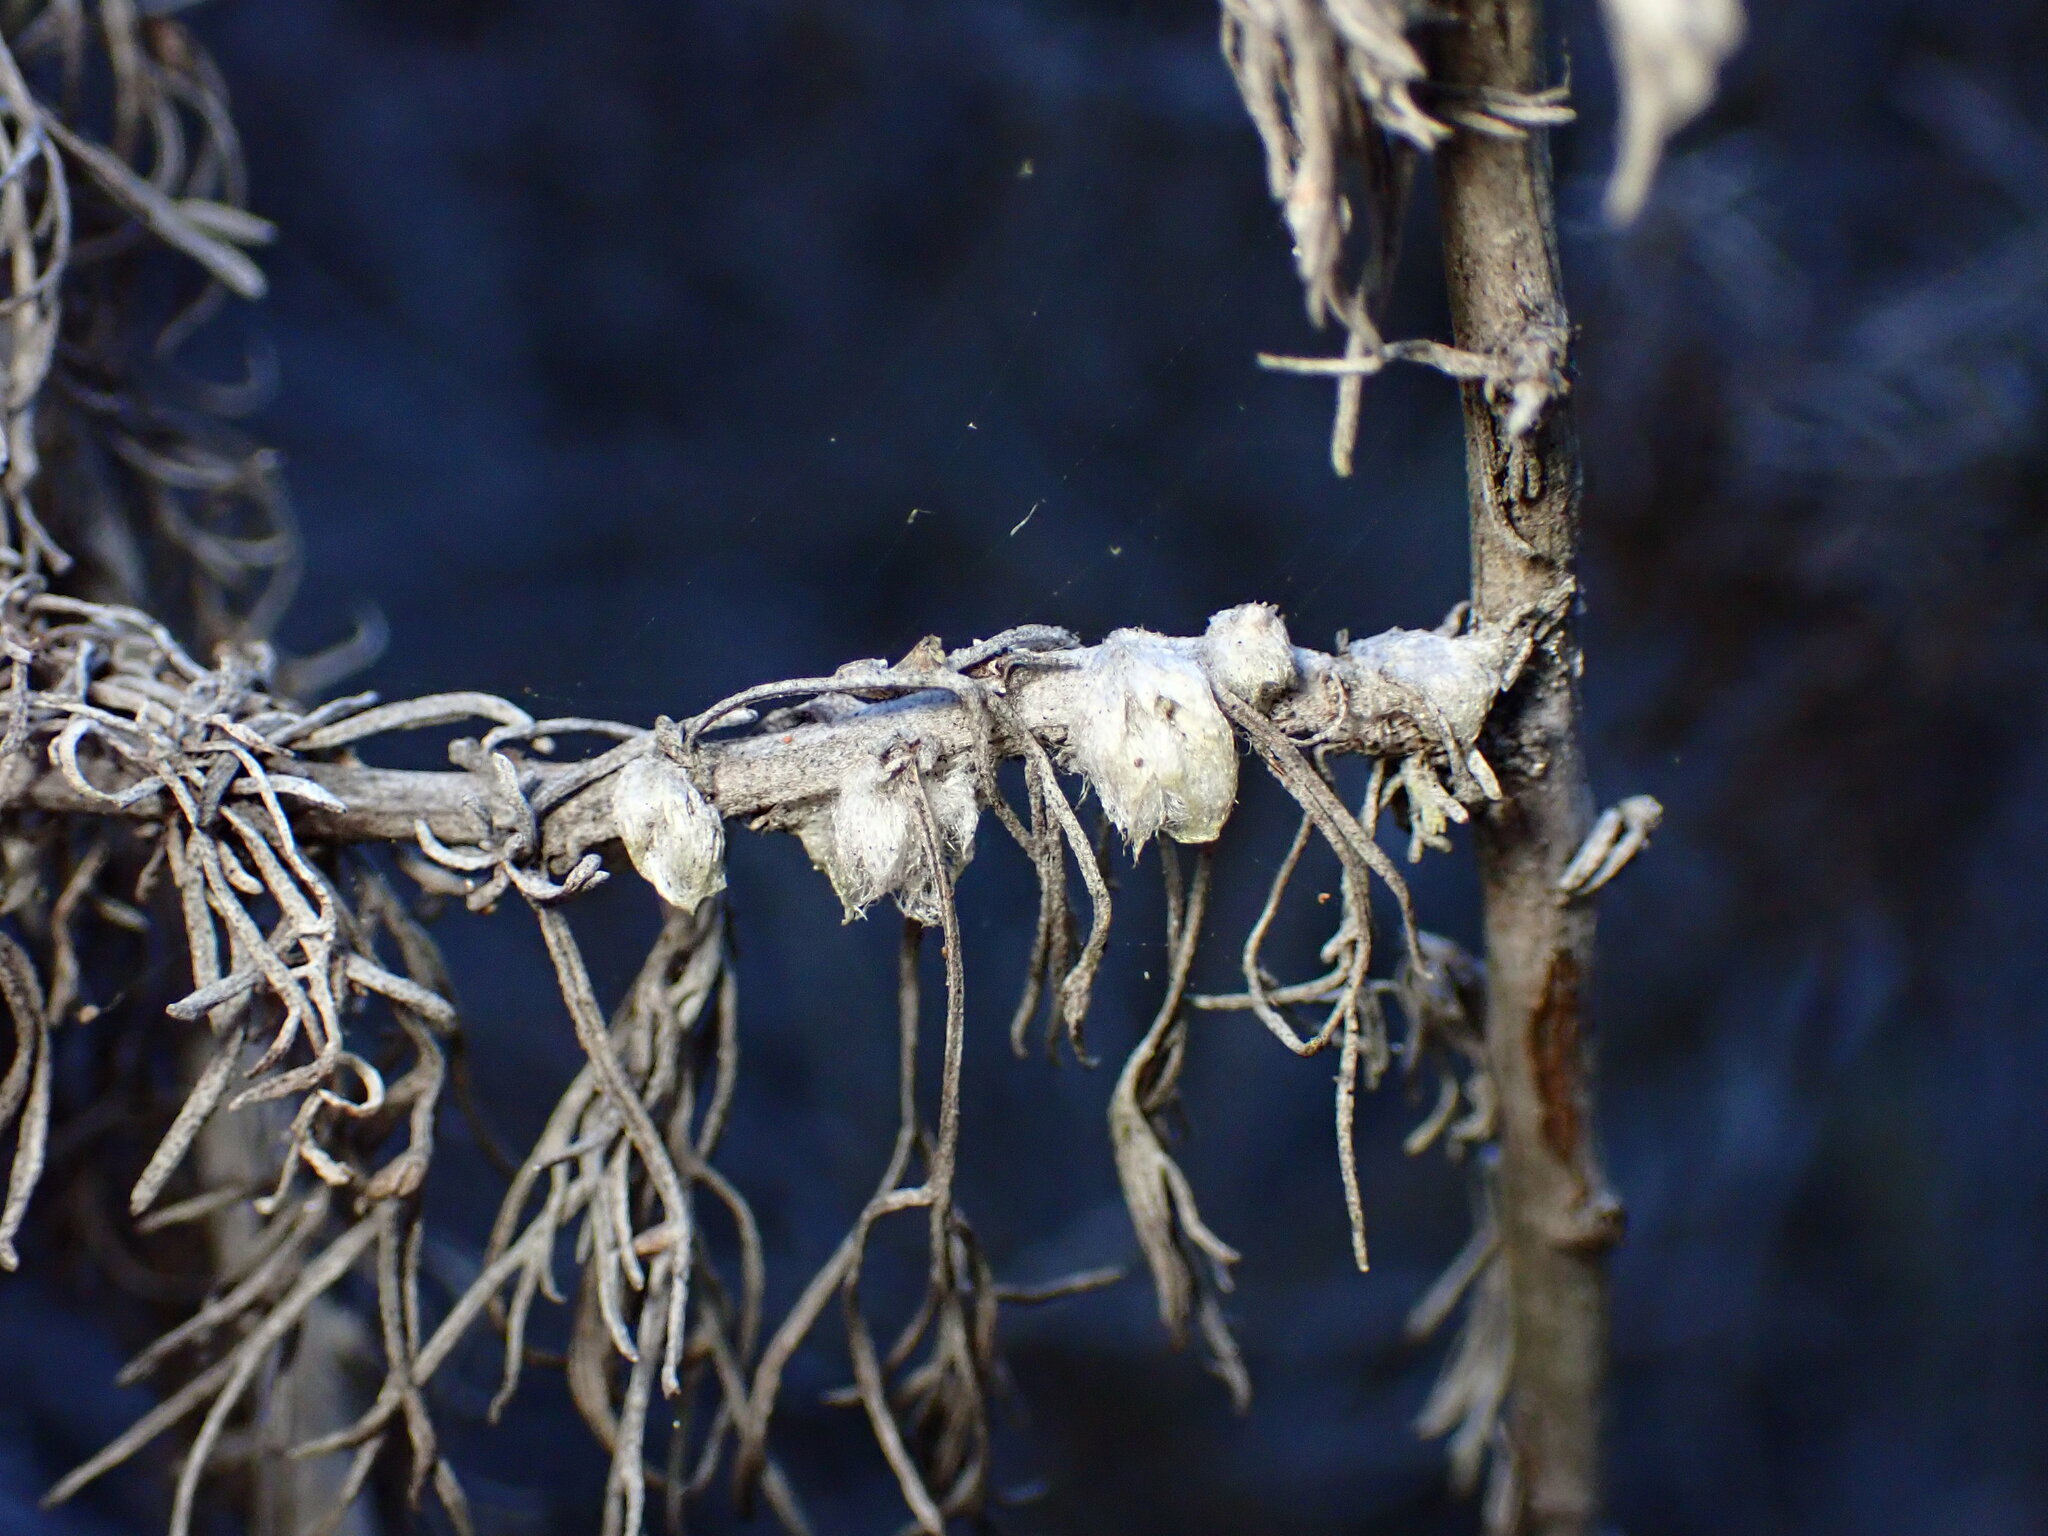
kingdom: Animalia
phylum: Arthropoda
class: Insecta
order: Diptera
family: Cecidomyiidae
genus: Rhopalomyia
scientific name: Rhopalomyia floccosa
